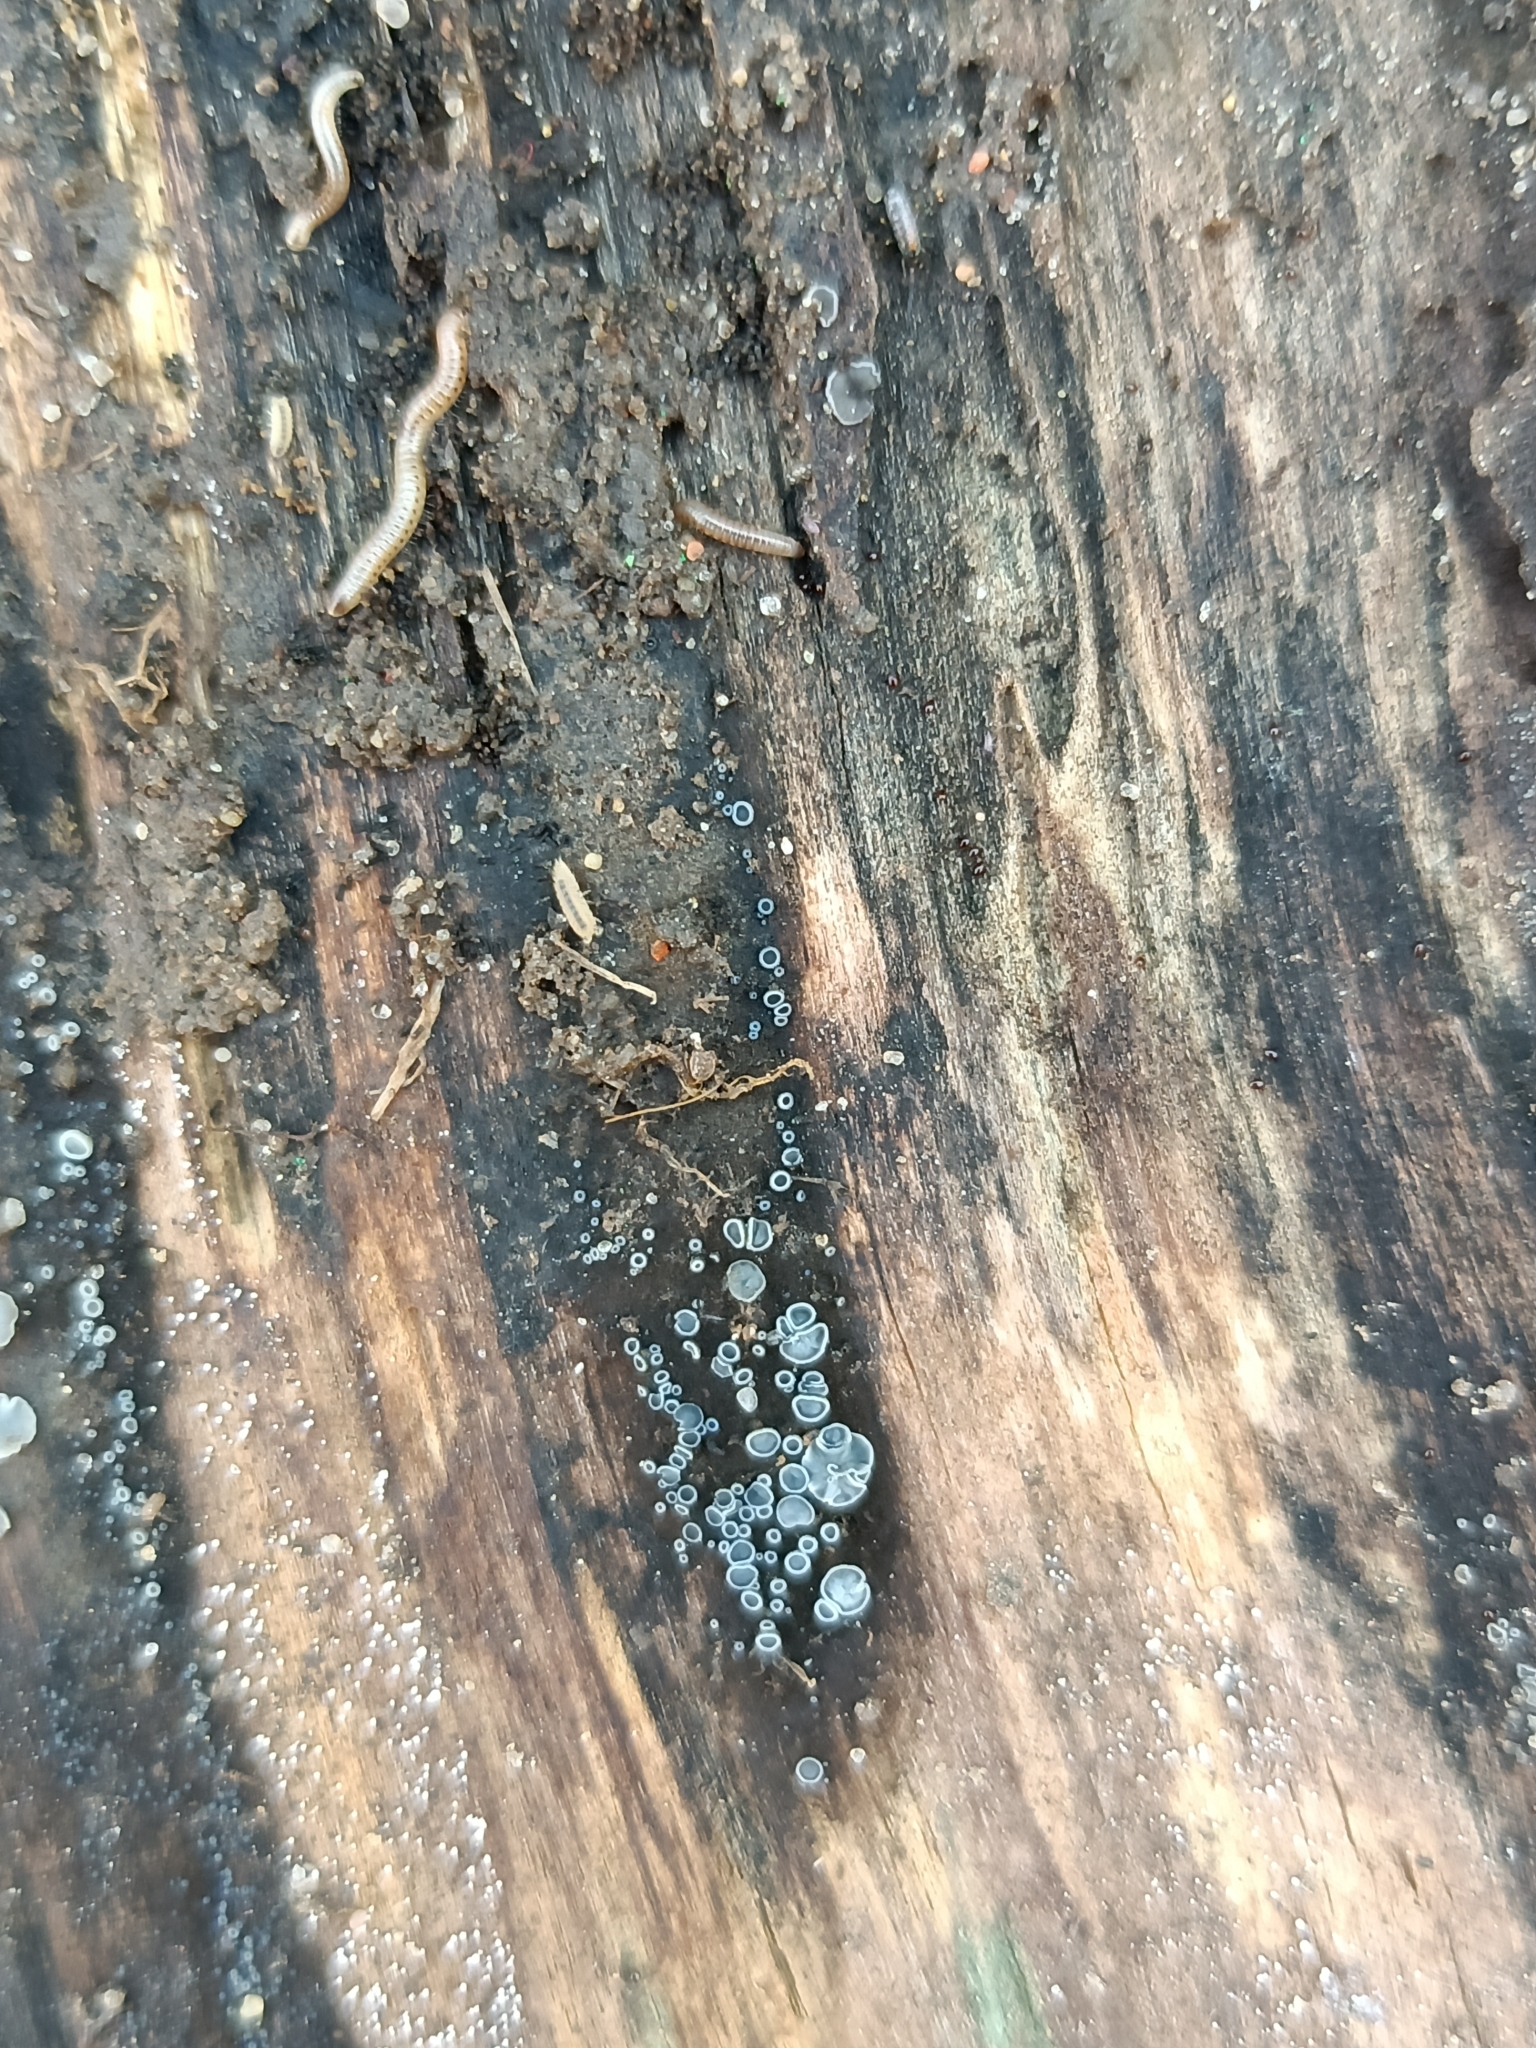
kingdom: Animalia
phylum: Arthropoda
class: Malacostraca
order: Isopoda
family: Trichoniscidae
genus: Haplophthalmus
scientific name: Haplophthalmus danicus
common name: Pillbug
